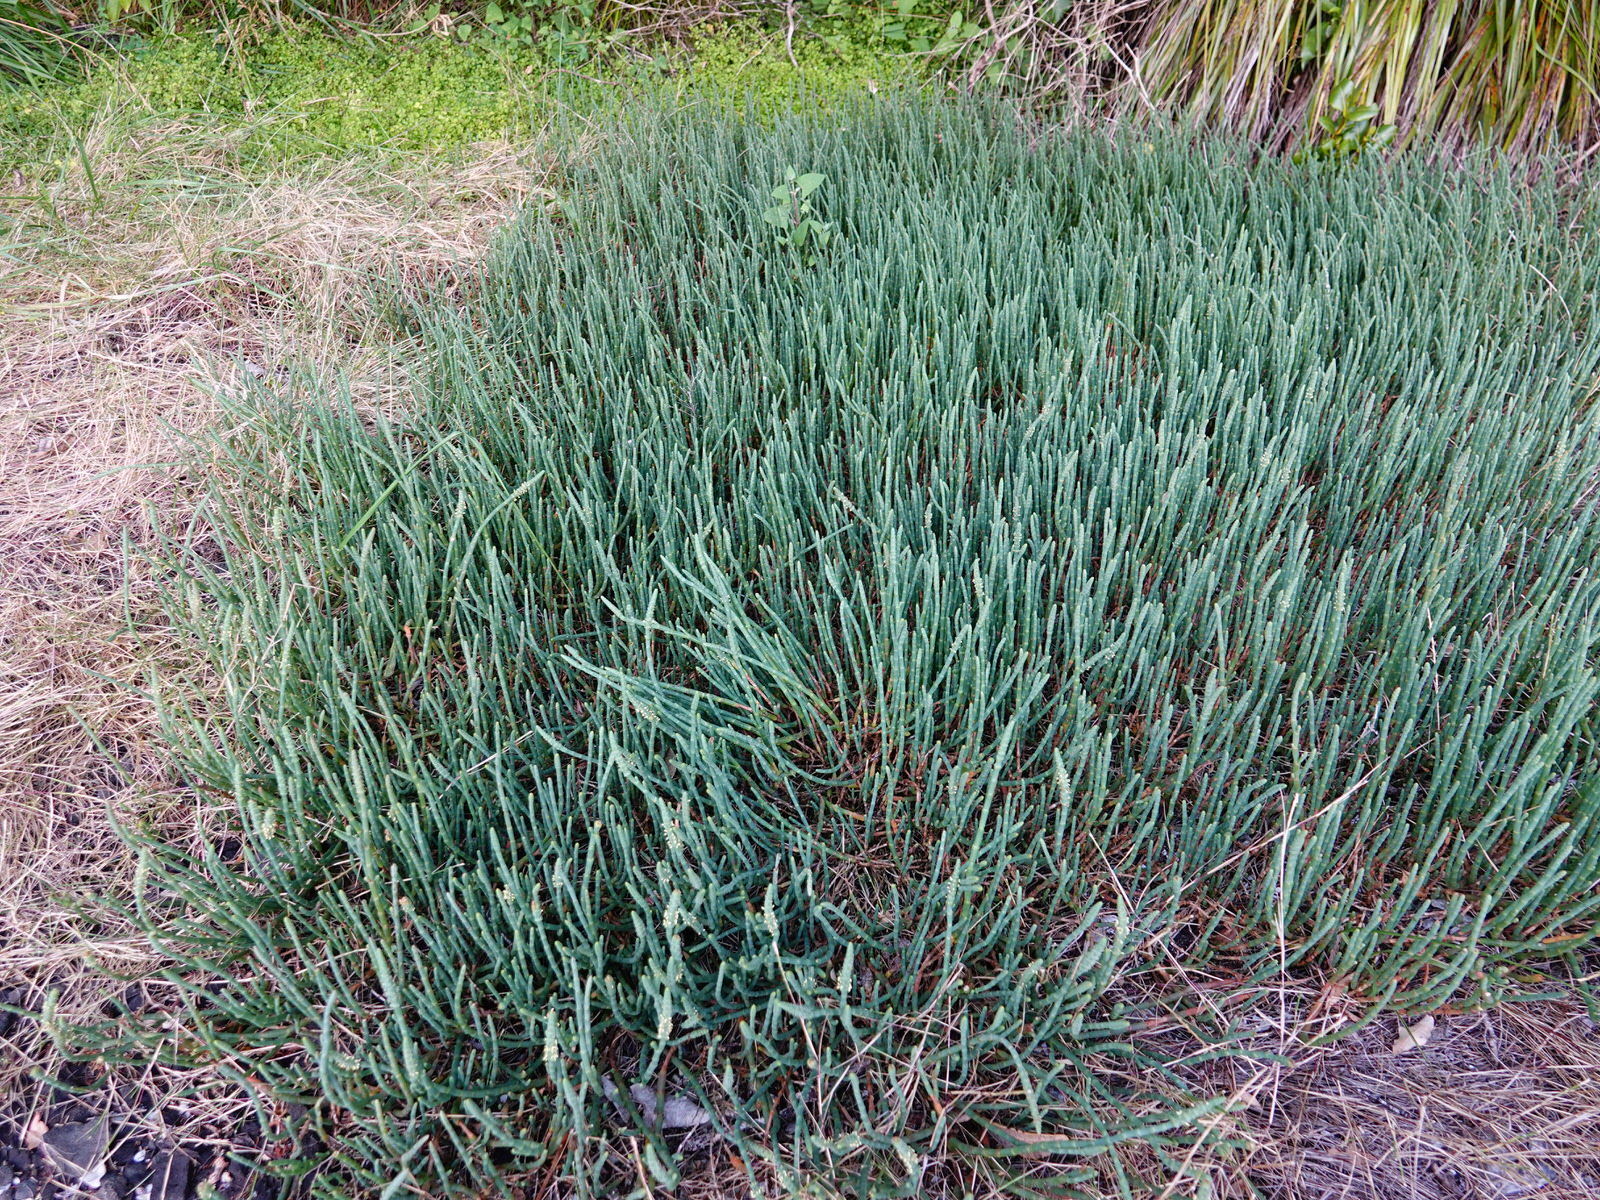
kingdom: Plantae
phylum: Tracheophyta
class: Magnoliopsida
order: Caryophyllales
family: Amaranthaceae
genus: Salicornia
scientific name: Salicornia quinqueflora
